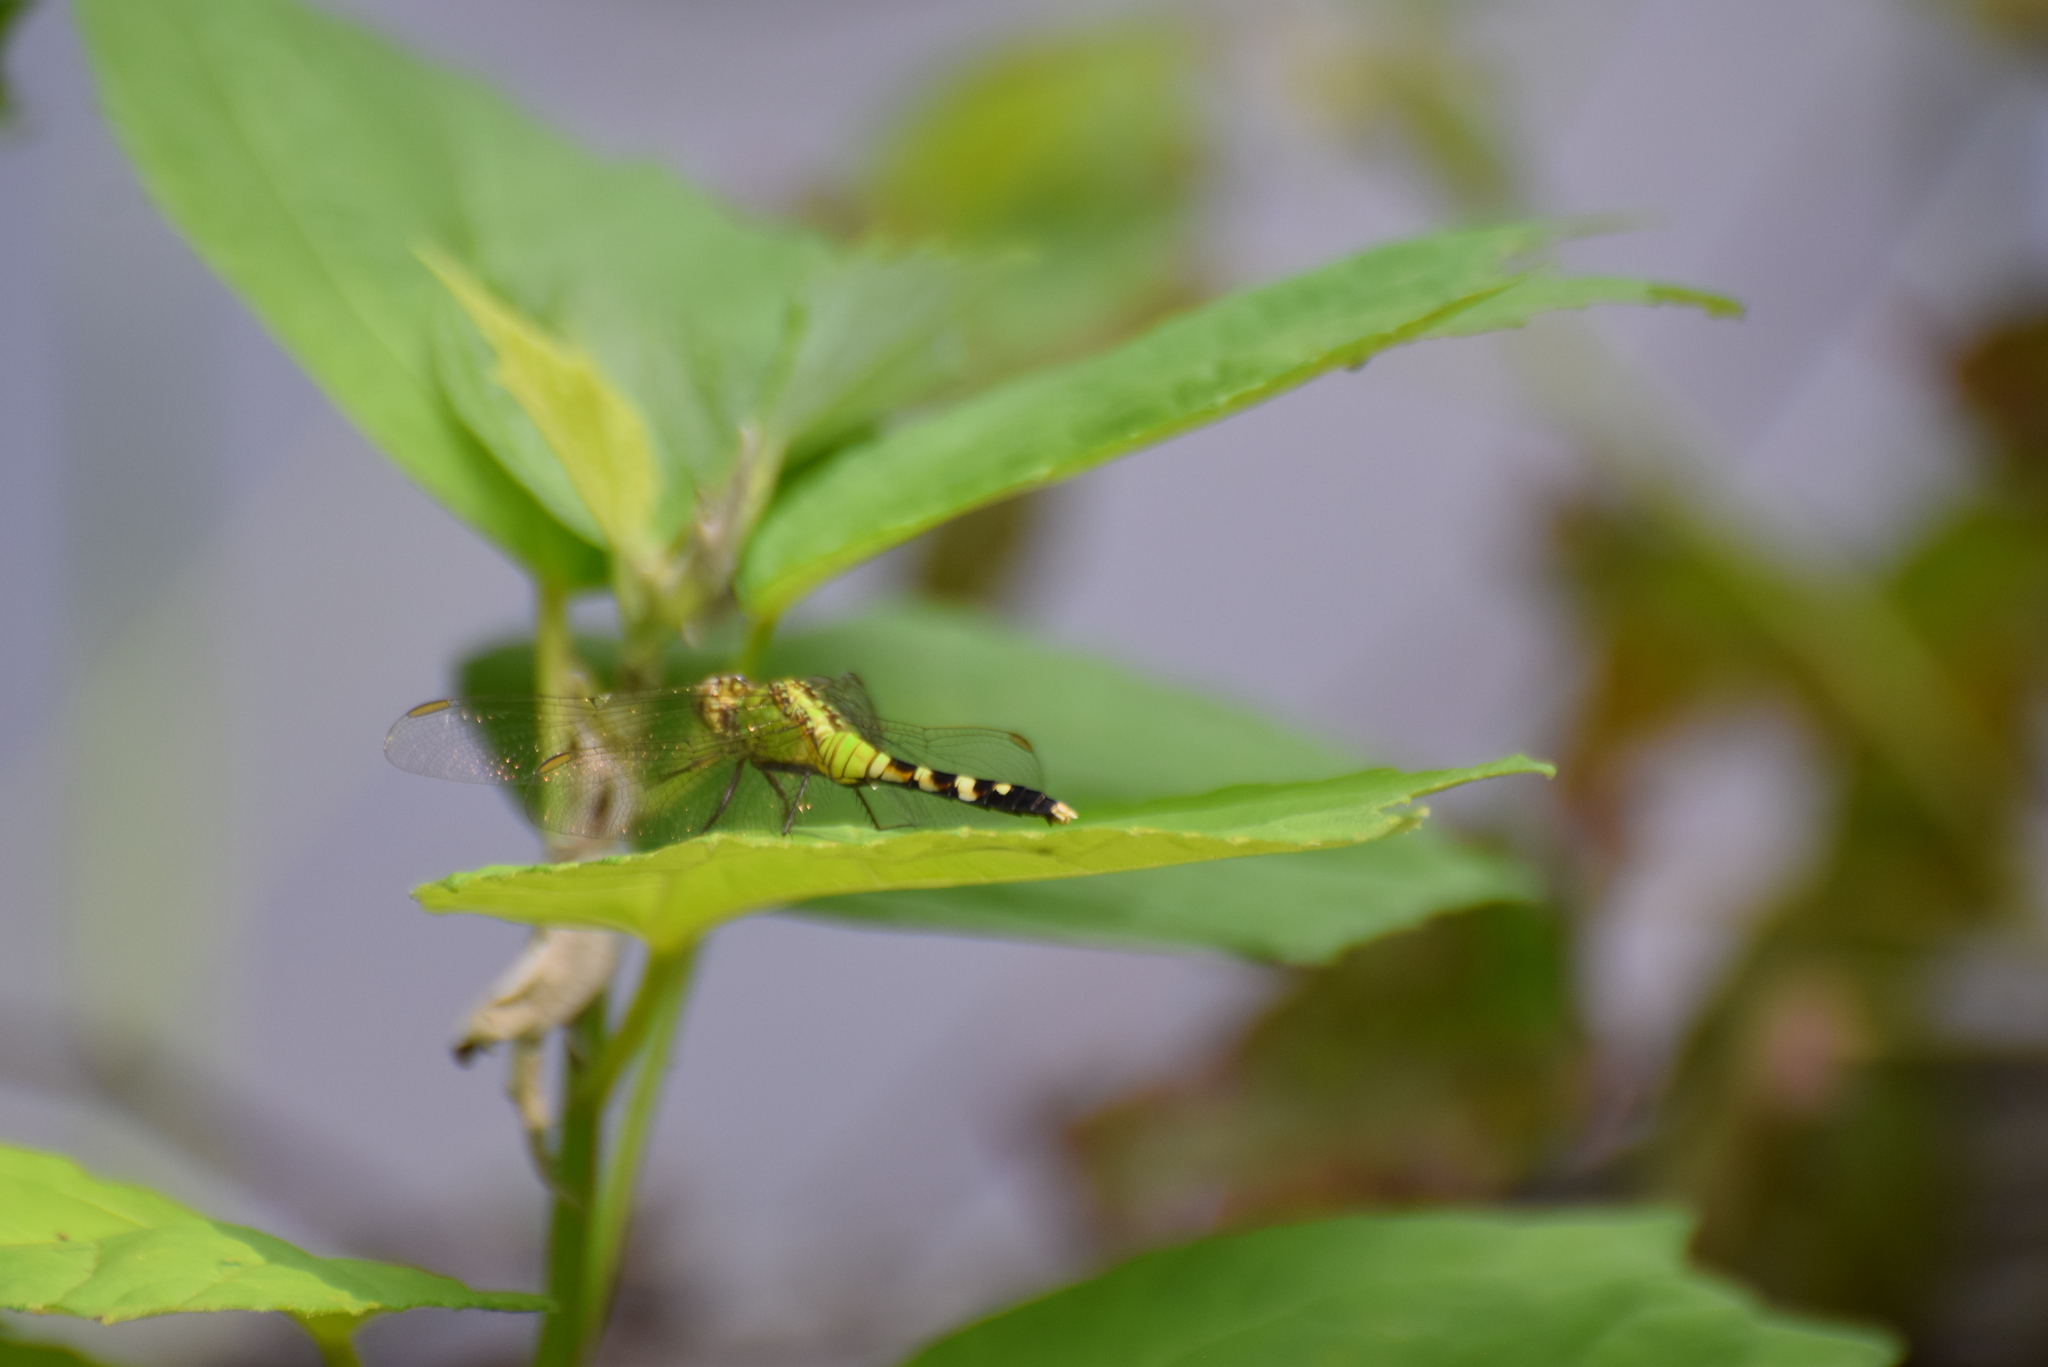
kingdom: Animalia
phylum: Arthropoda
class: Insecta
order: Odonata
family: Libellulidae
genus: Erythemis
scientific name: Erythemis simplicicollis
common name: Eastern pondhawk
